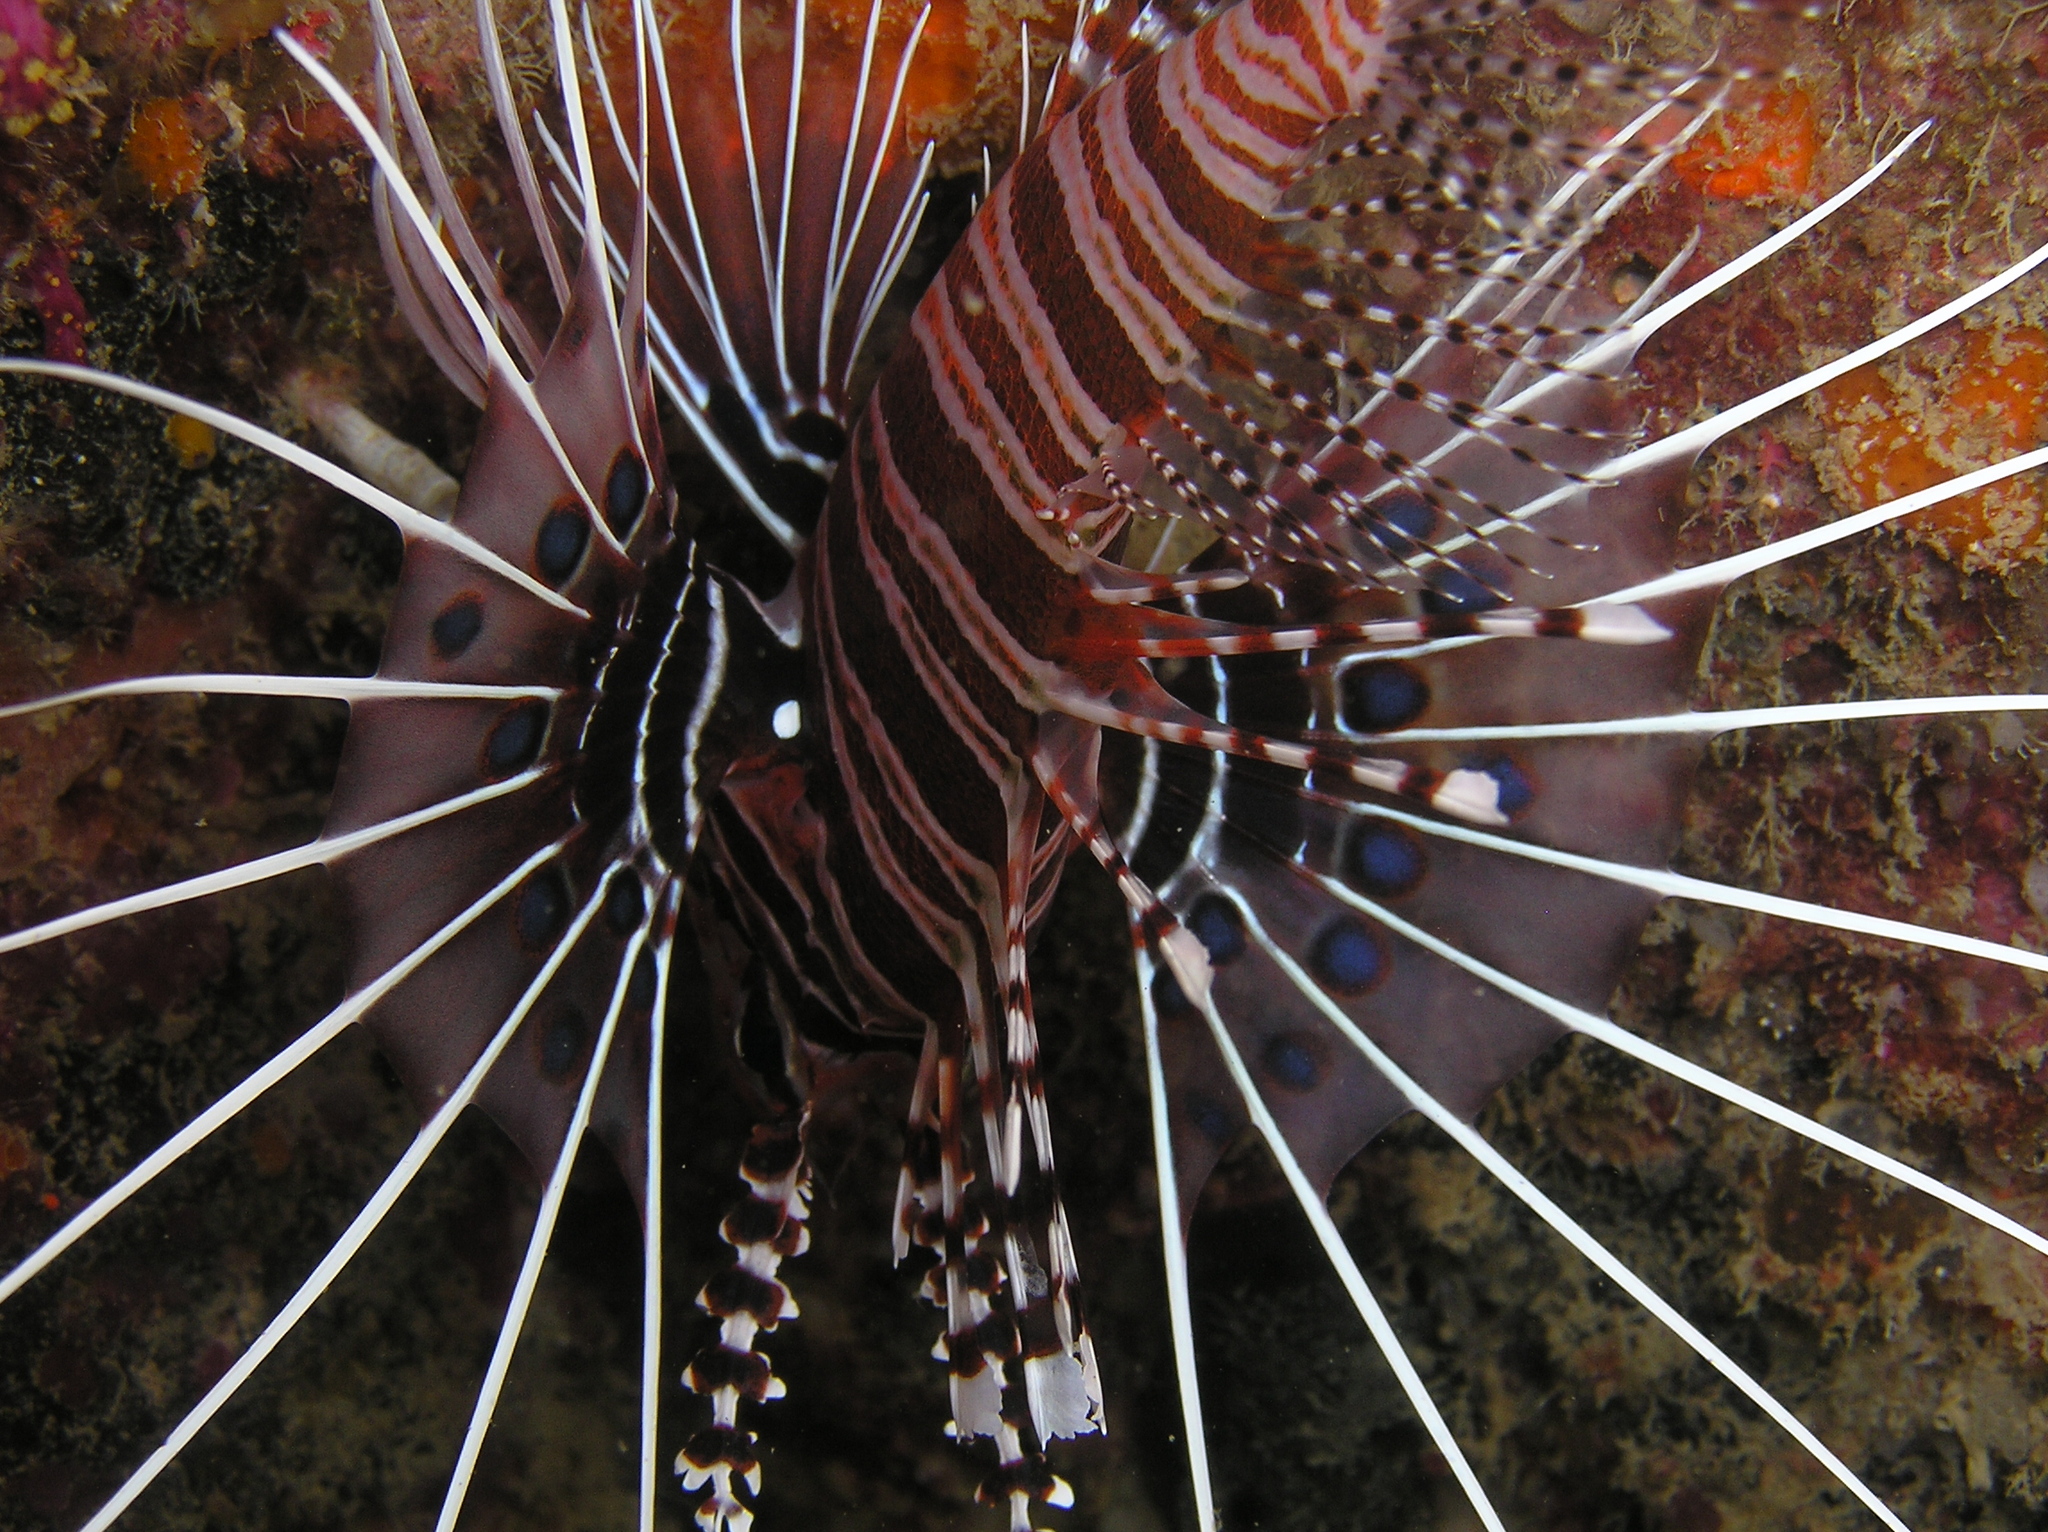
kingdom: Animalia
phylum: Chordata
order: Scorpaeniformes
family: Scorpaenidae
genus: Pterois
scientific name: Pterois antennata
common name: Spotfin lionfish
